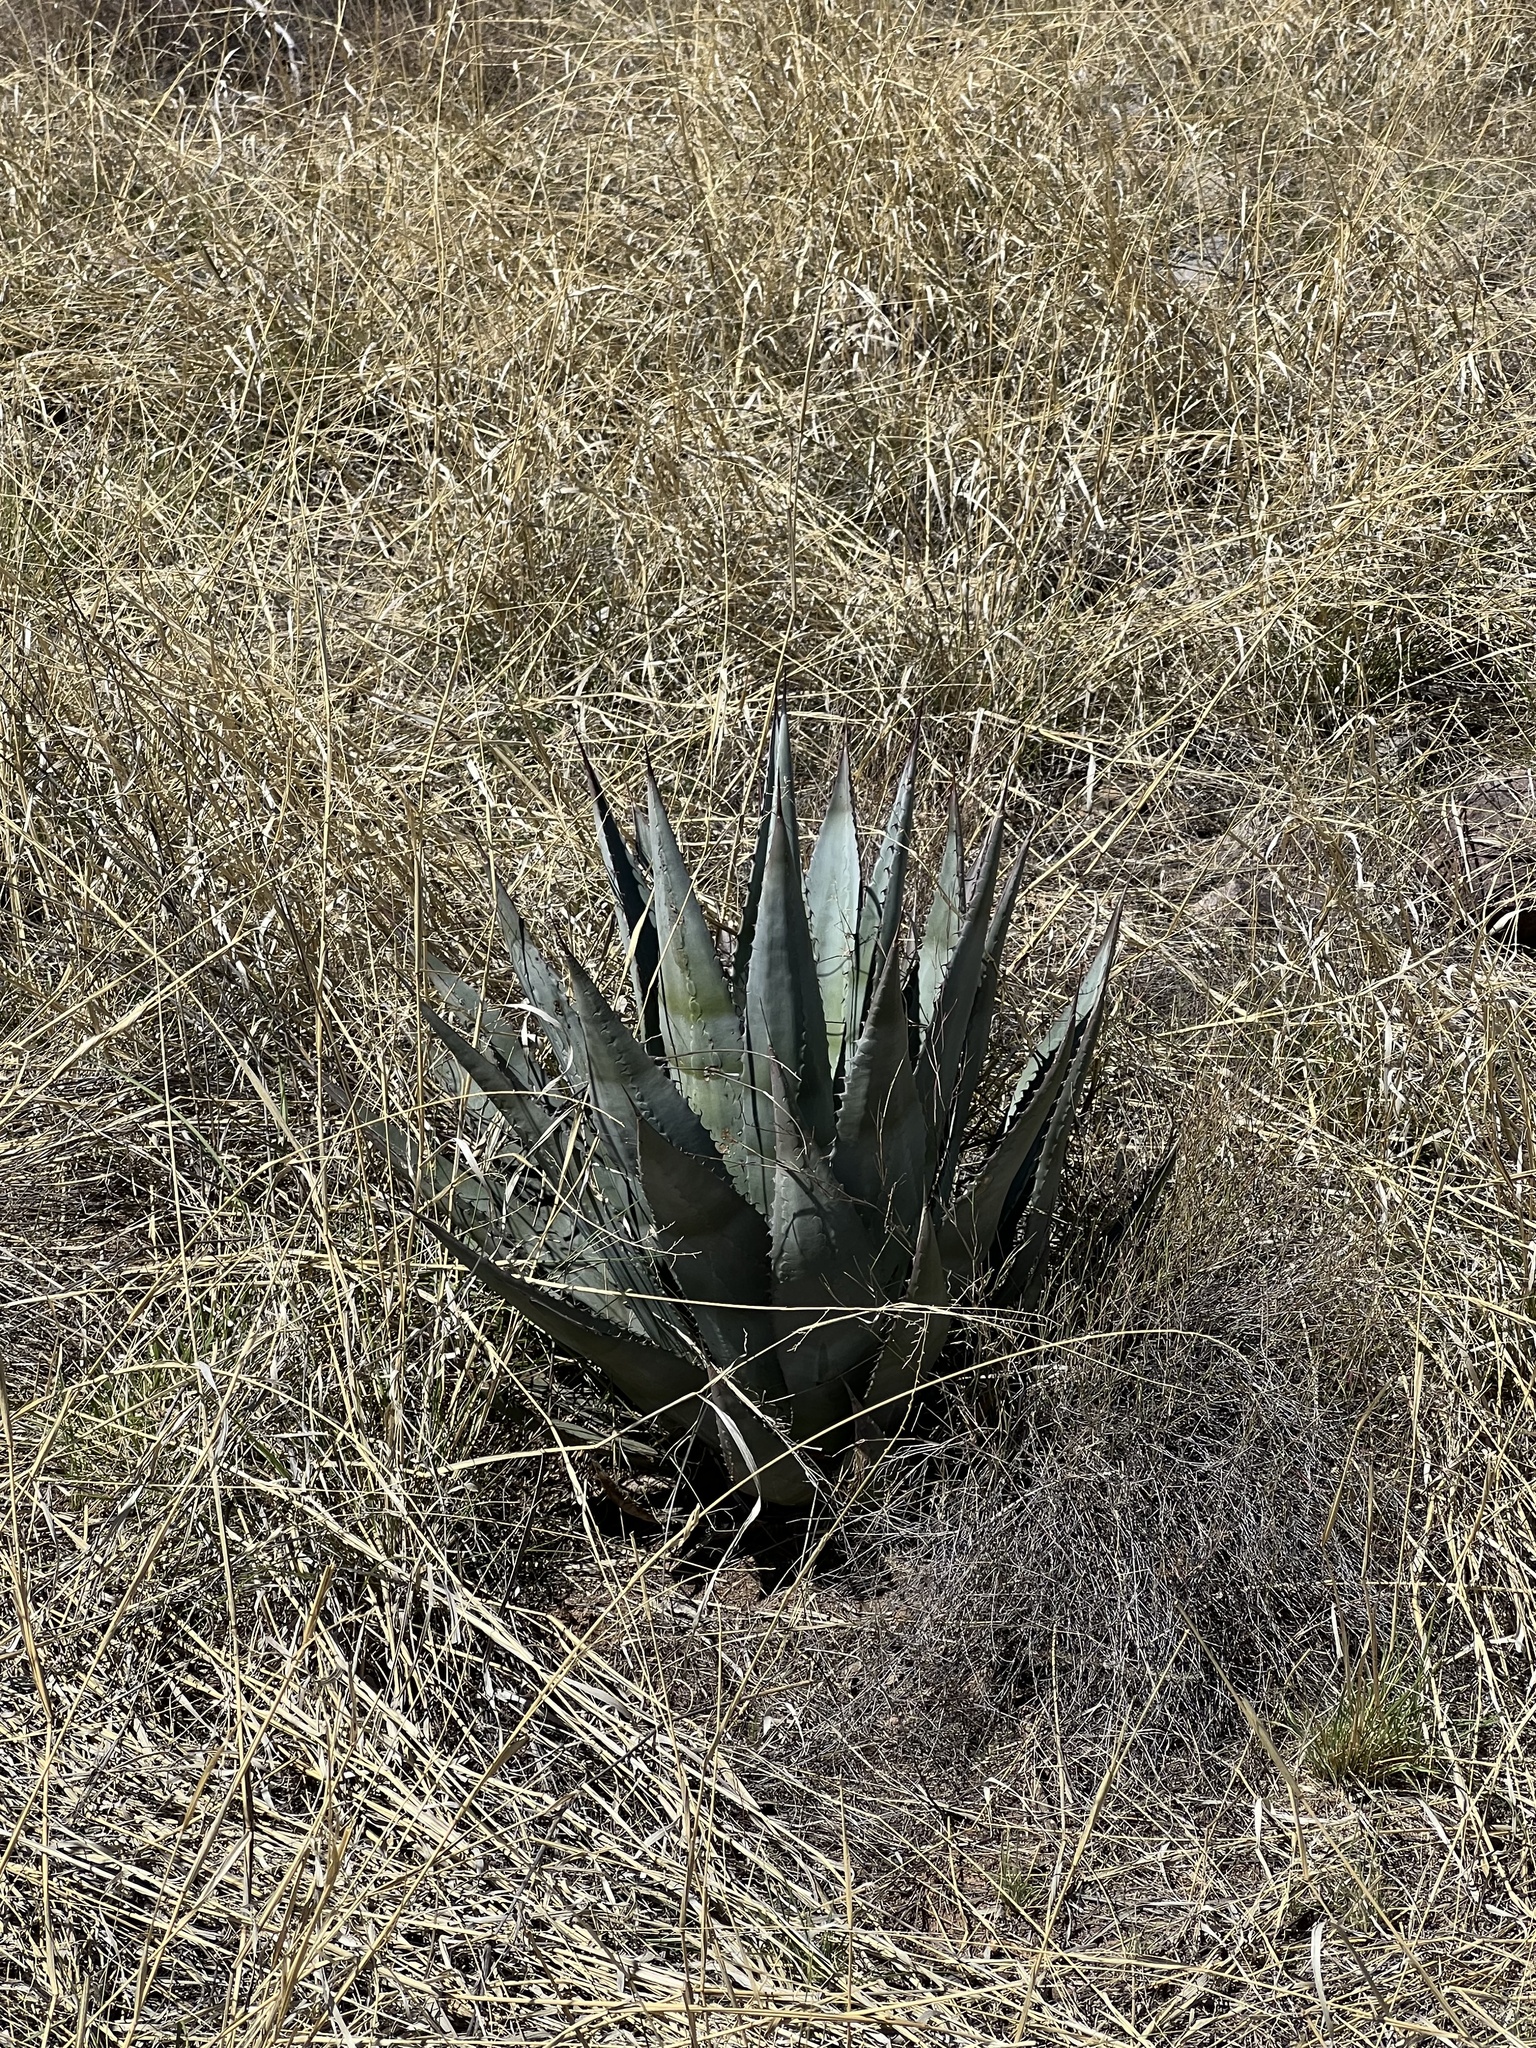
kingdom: Plantae
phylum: Tracheophyta
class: Liliopsida
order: Asparagales
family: Asparagaceae
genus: Agave
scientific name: Agave palmeri
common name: Palmer agave
